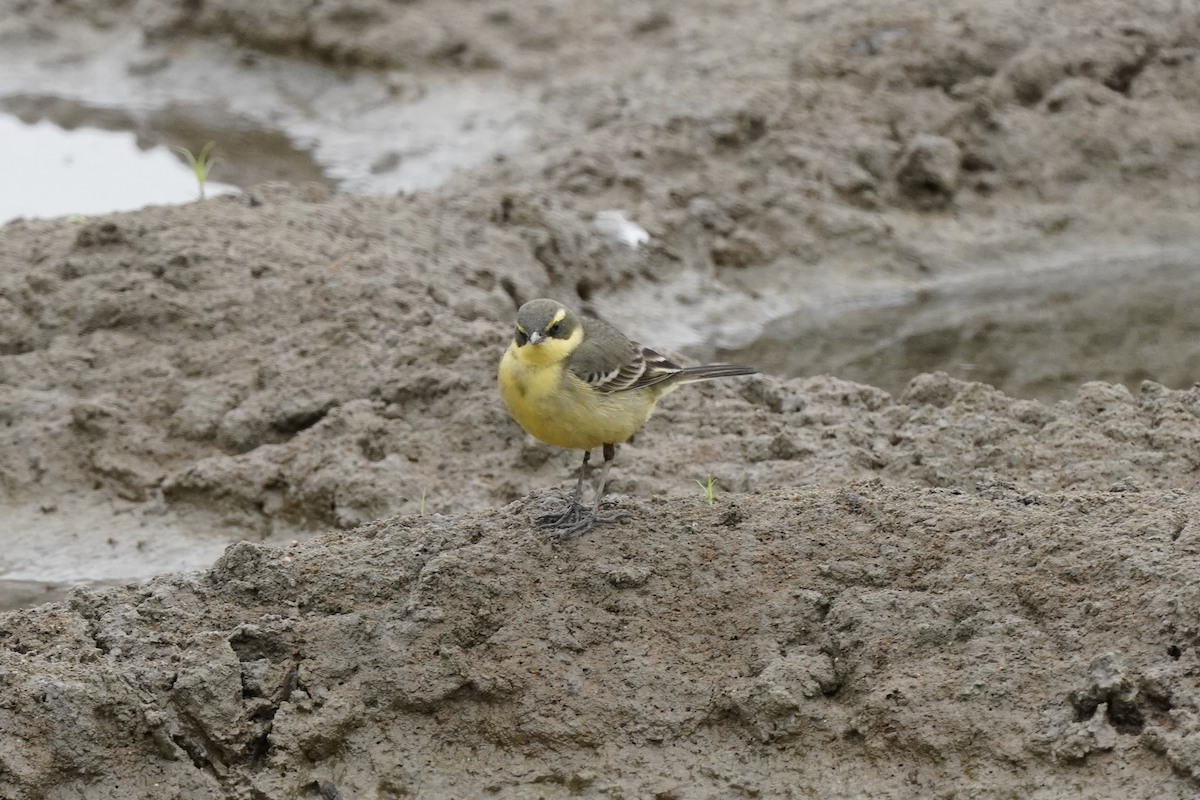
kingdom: Animalia
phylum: Chordata
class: Aves
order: Passeriformes
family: Motacillidae
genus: Motacilla
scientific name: Motacilla tschutschensis
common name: Eastern yellow wagtail
